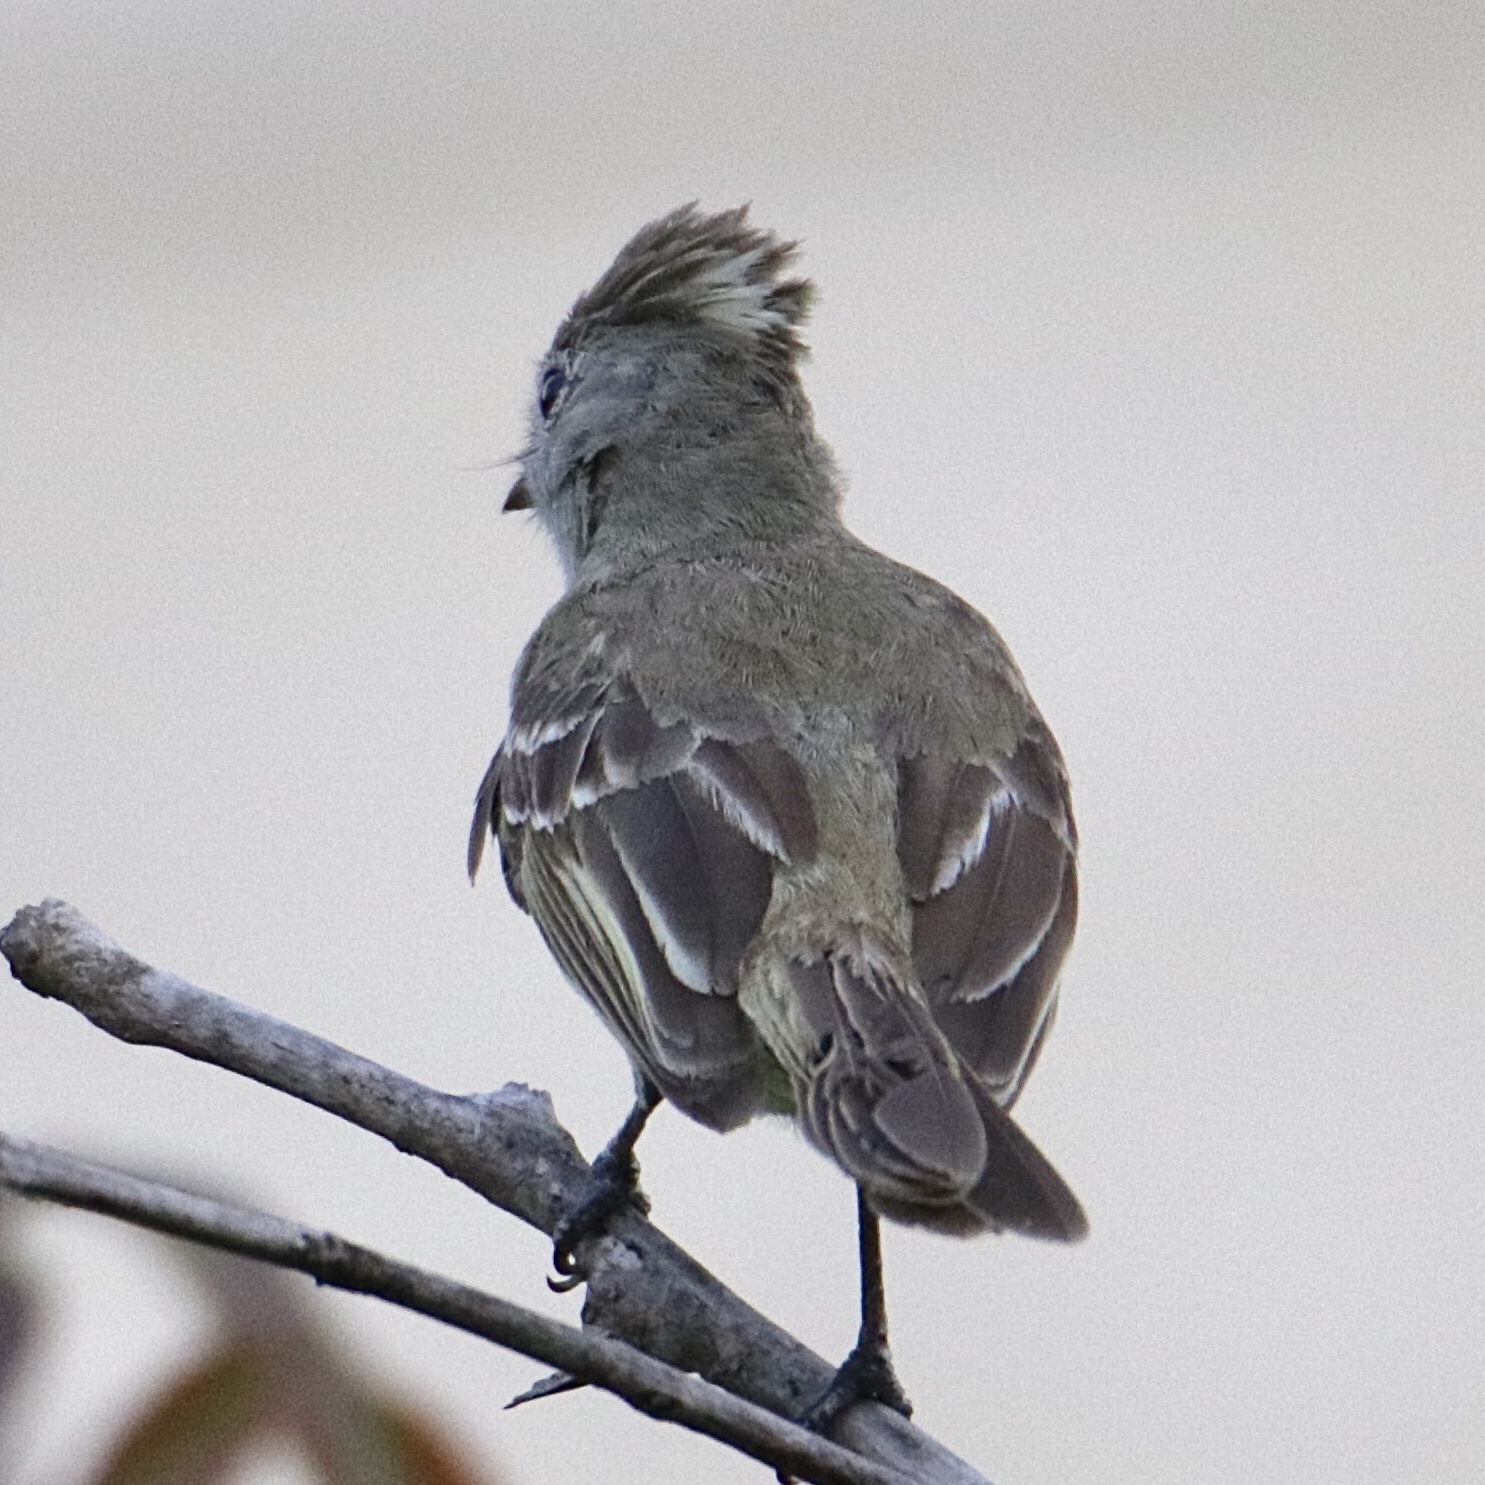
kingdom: Animalia
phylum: Chordata
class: Aves
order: Passeriformes
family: Tyrannidae
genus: Elaenia
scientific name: Elaenia flavogaster
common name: Yellow-bellied elaenia
